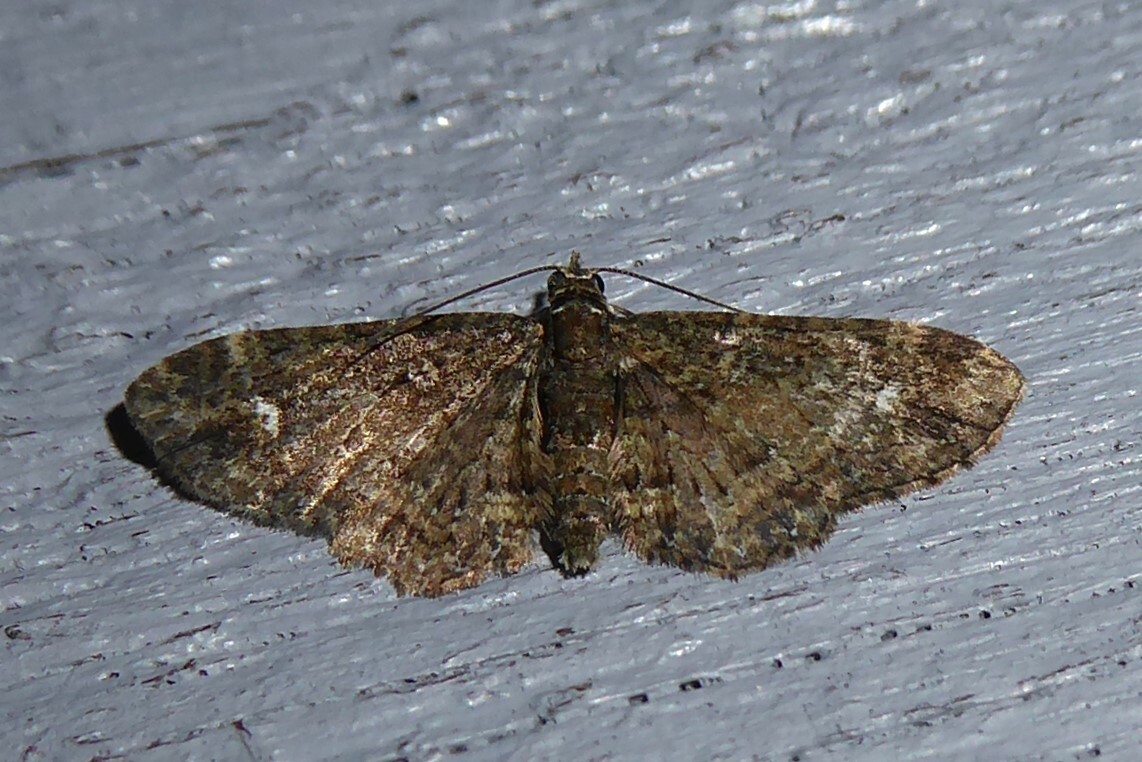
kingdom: Animalia
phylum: Arthropoda
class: Insecta
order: Lepidoptera
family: Geometridae
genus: Pasiphilodes
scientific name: Pasiphilodes testulata
